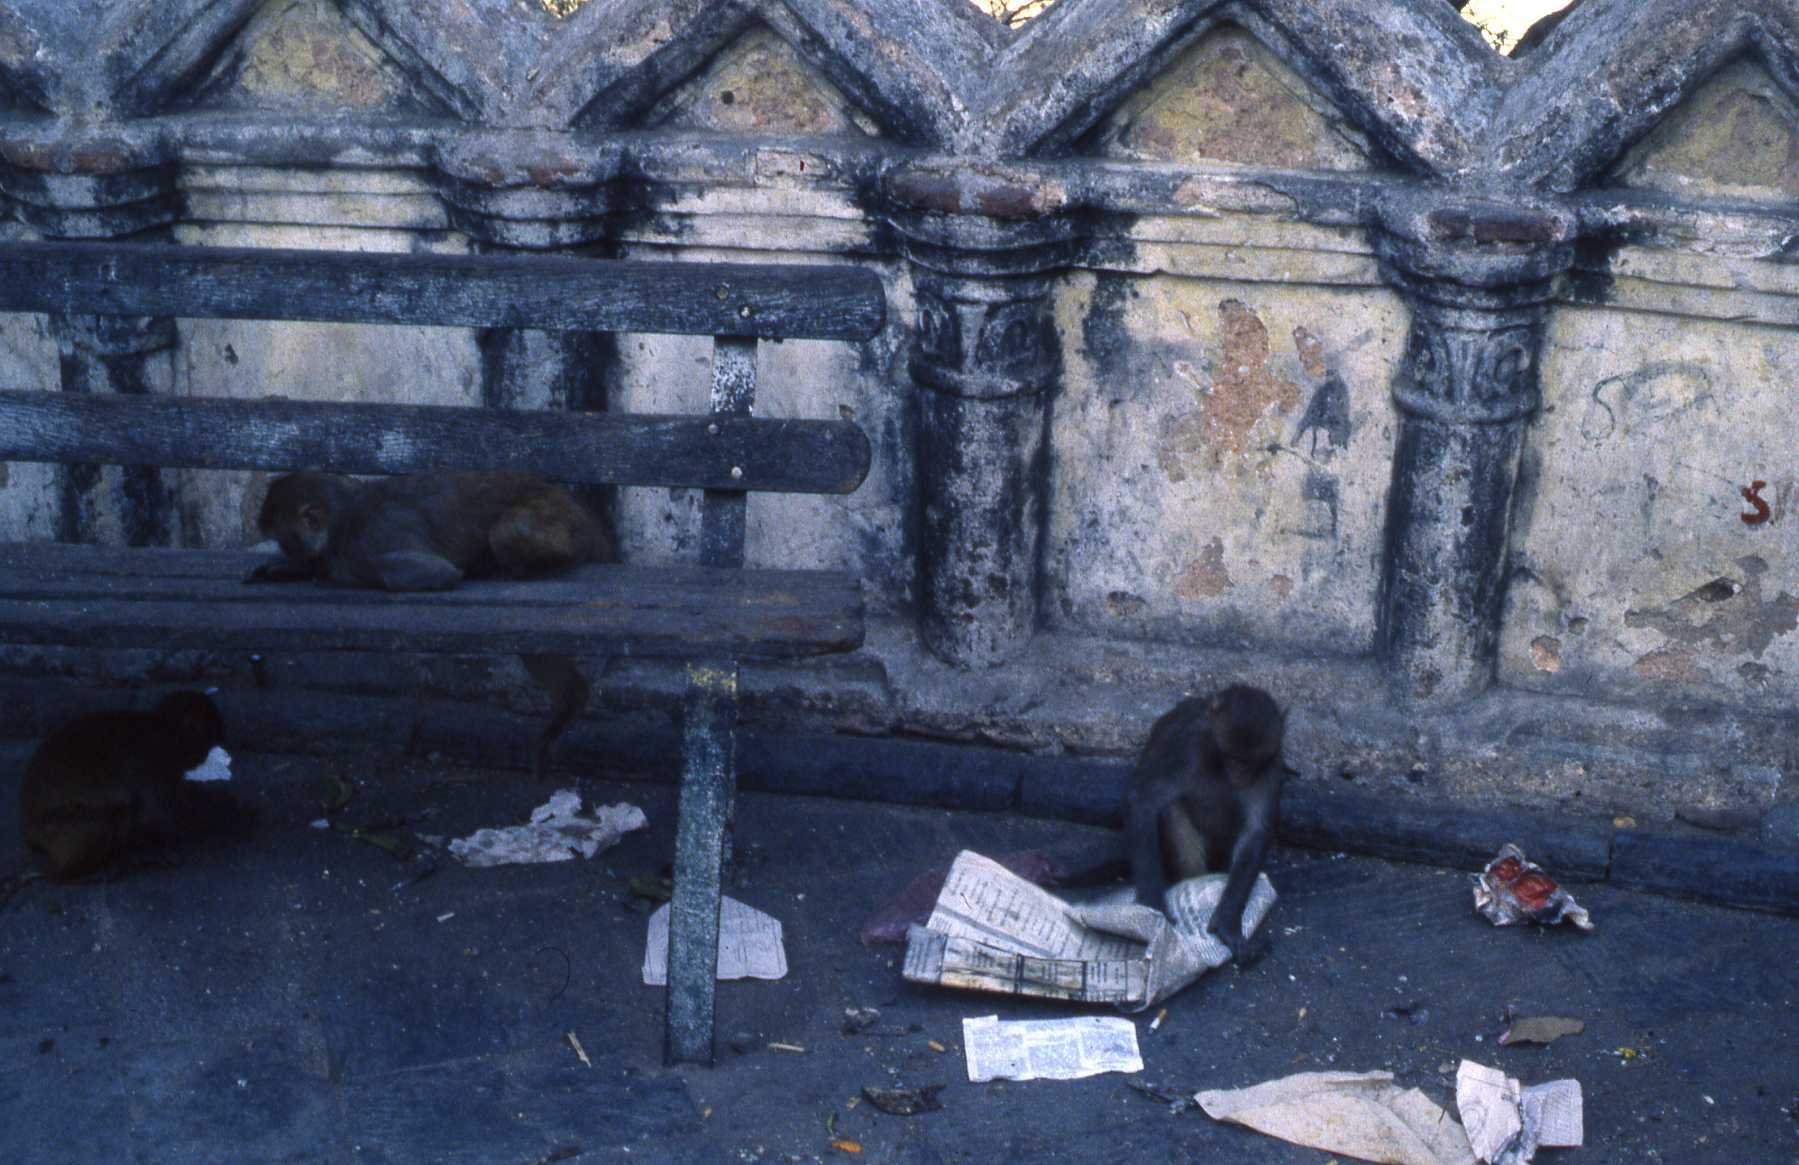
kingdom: Animalia
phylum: Chordata
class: Mammalia
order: Primates
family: Cercopithecidae
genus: Macaca
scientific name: Macaca mulatta
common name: Rhesus monkey
